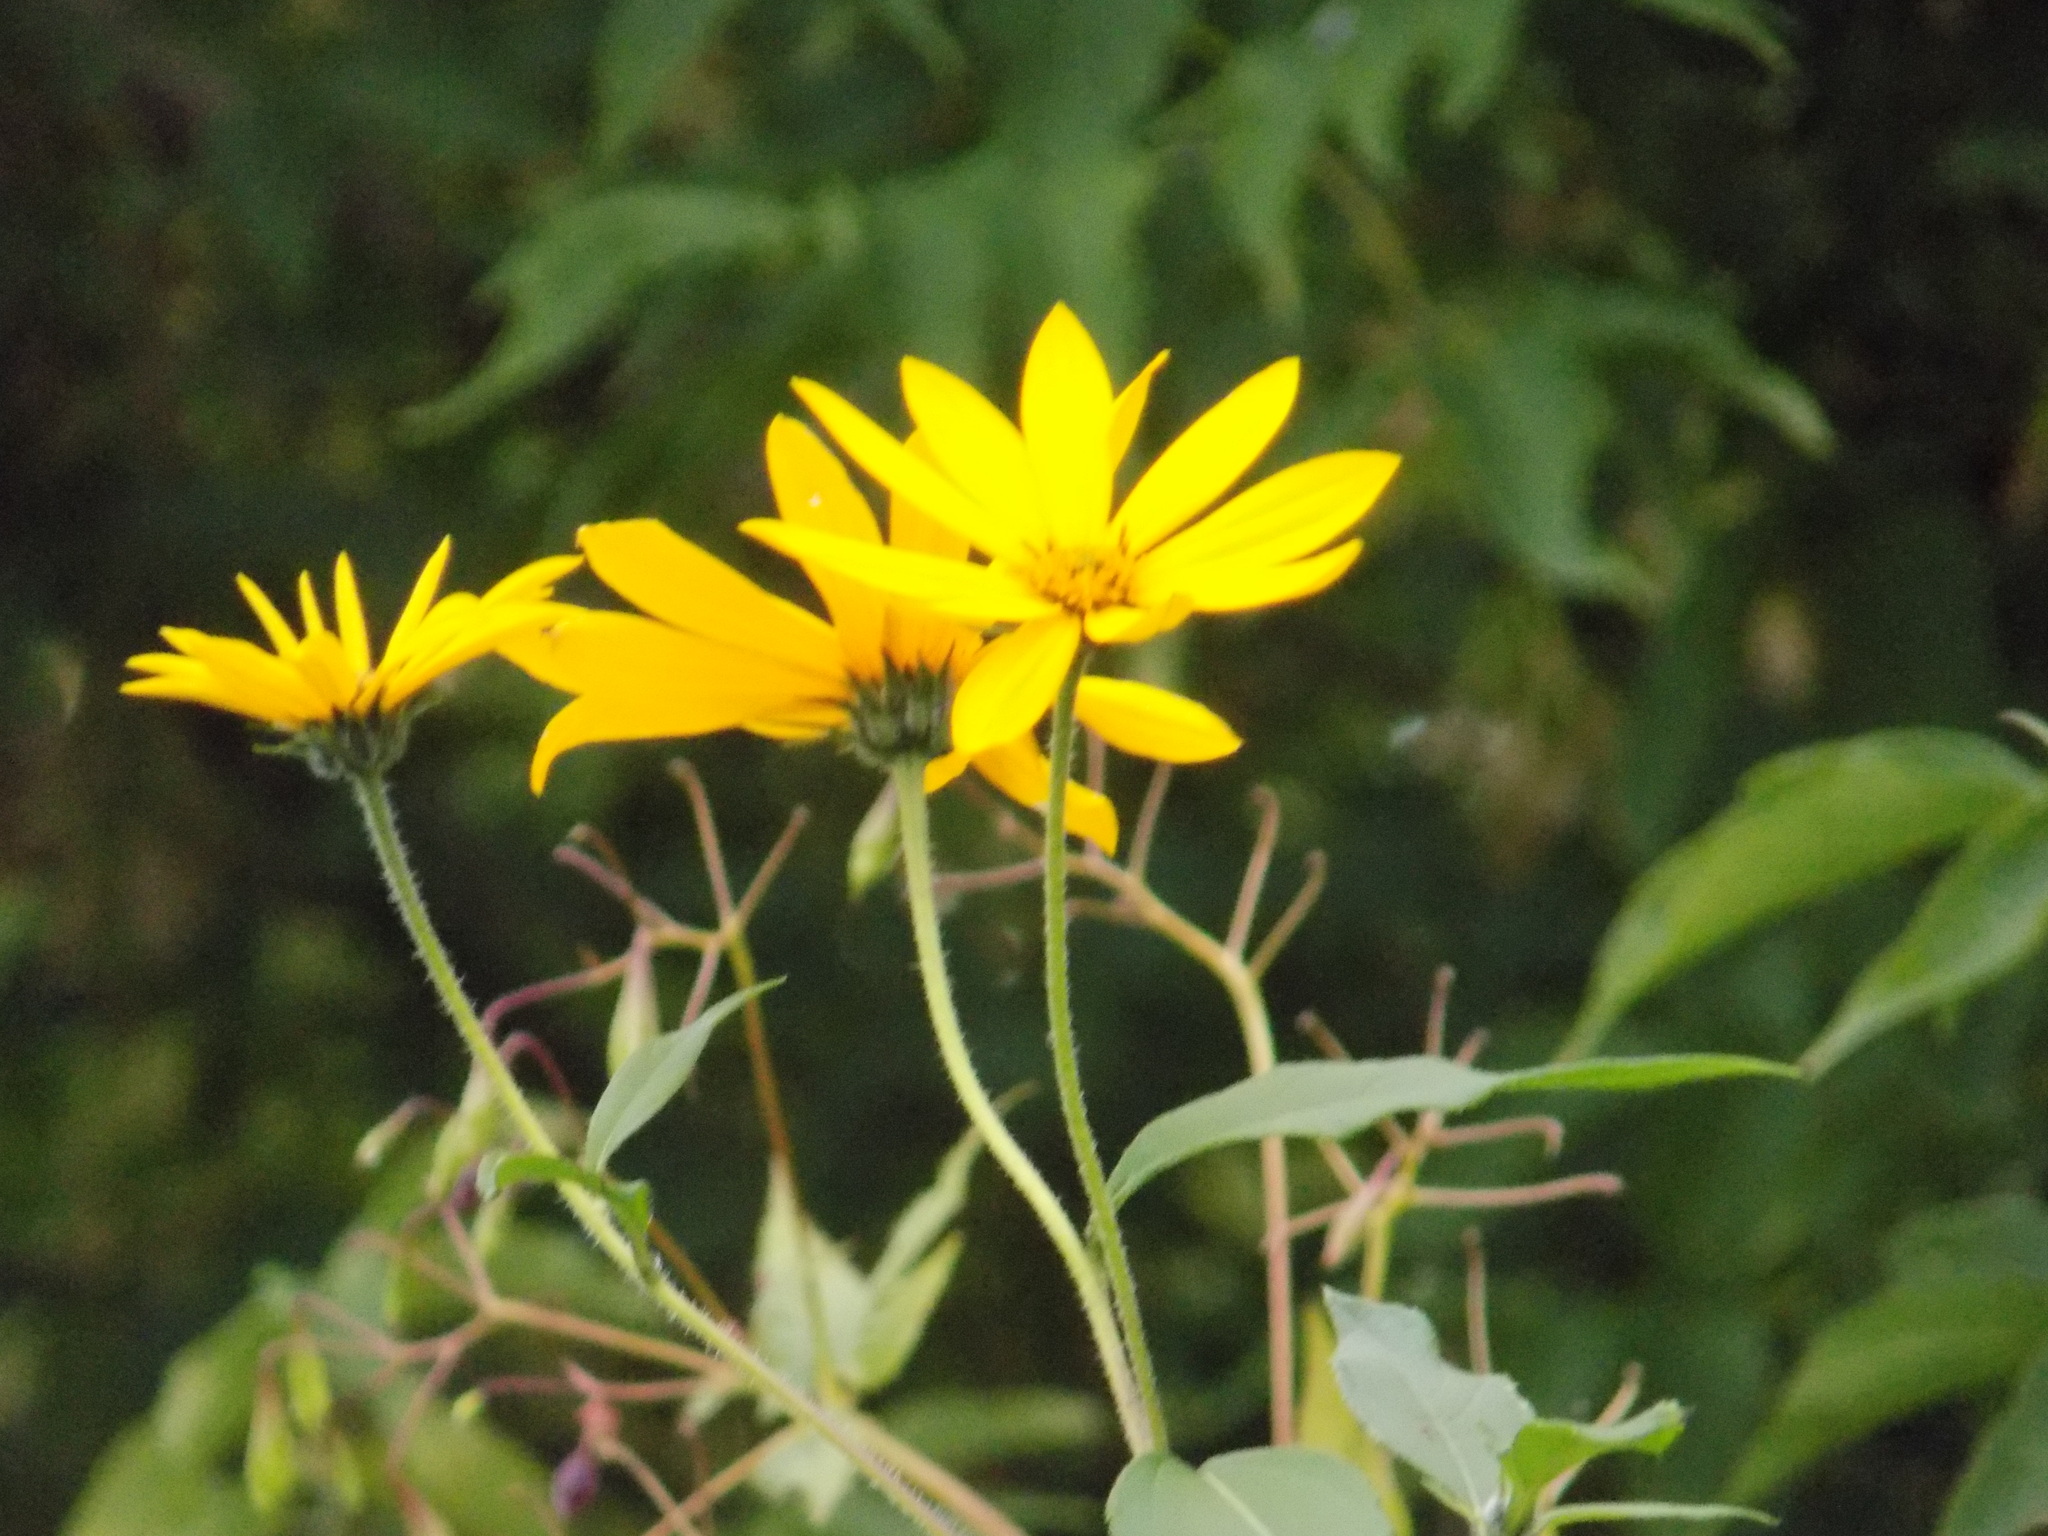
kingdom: Plantae
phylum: Tracheophyta
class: Magnoliopsida
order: Asterales
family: Asteraceae
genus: Helianthus
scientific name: Helianthus tuberosus
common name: Jerusalem artichoke
